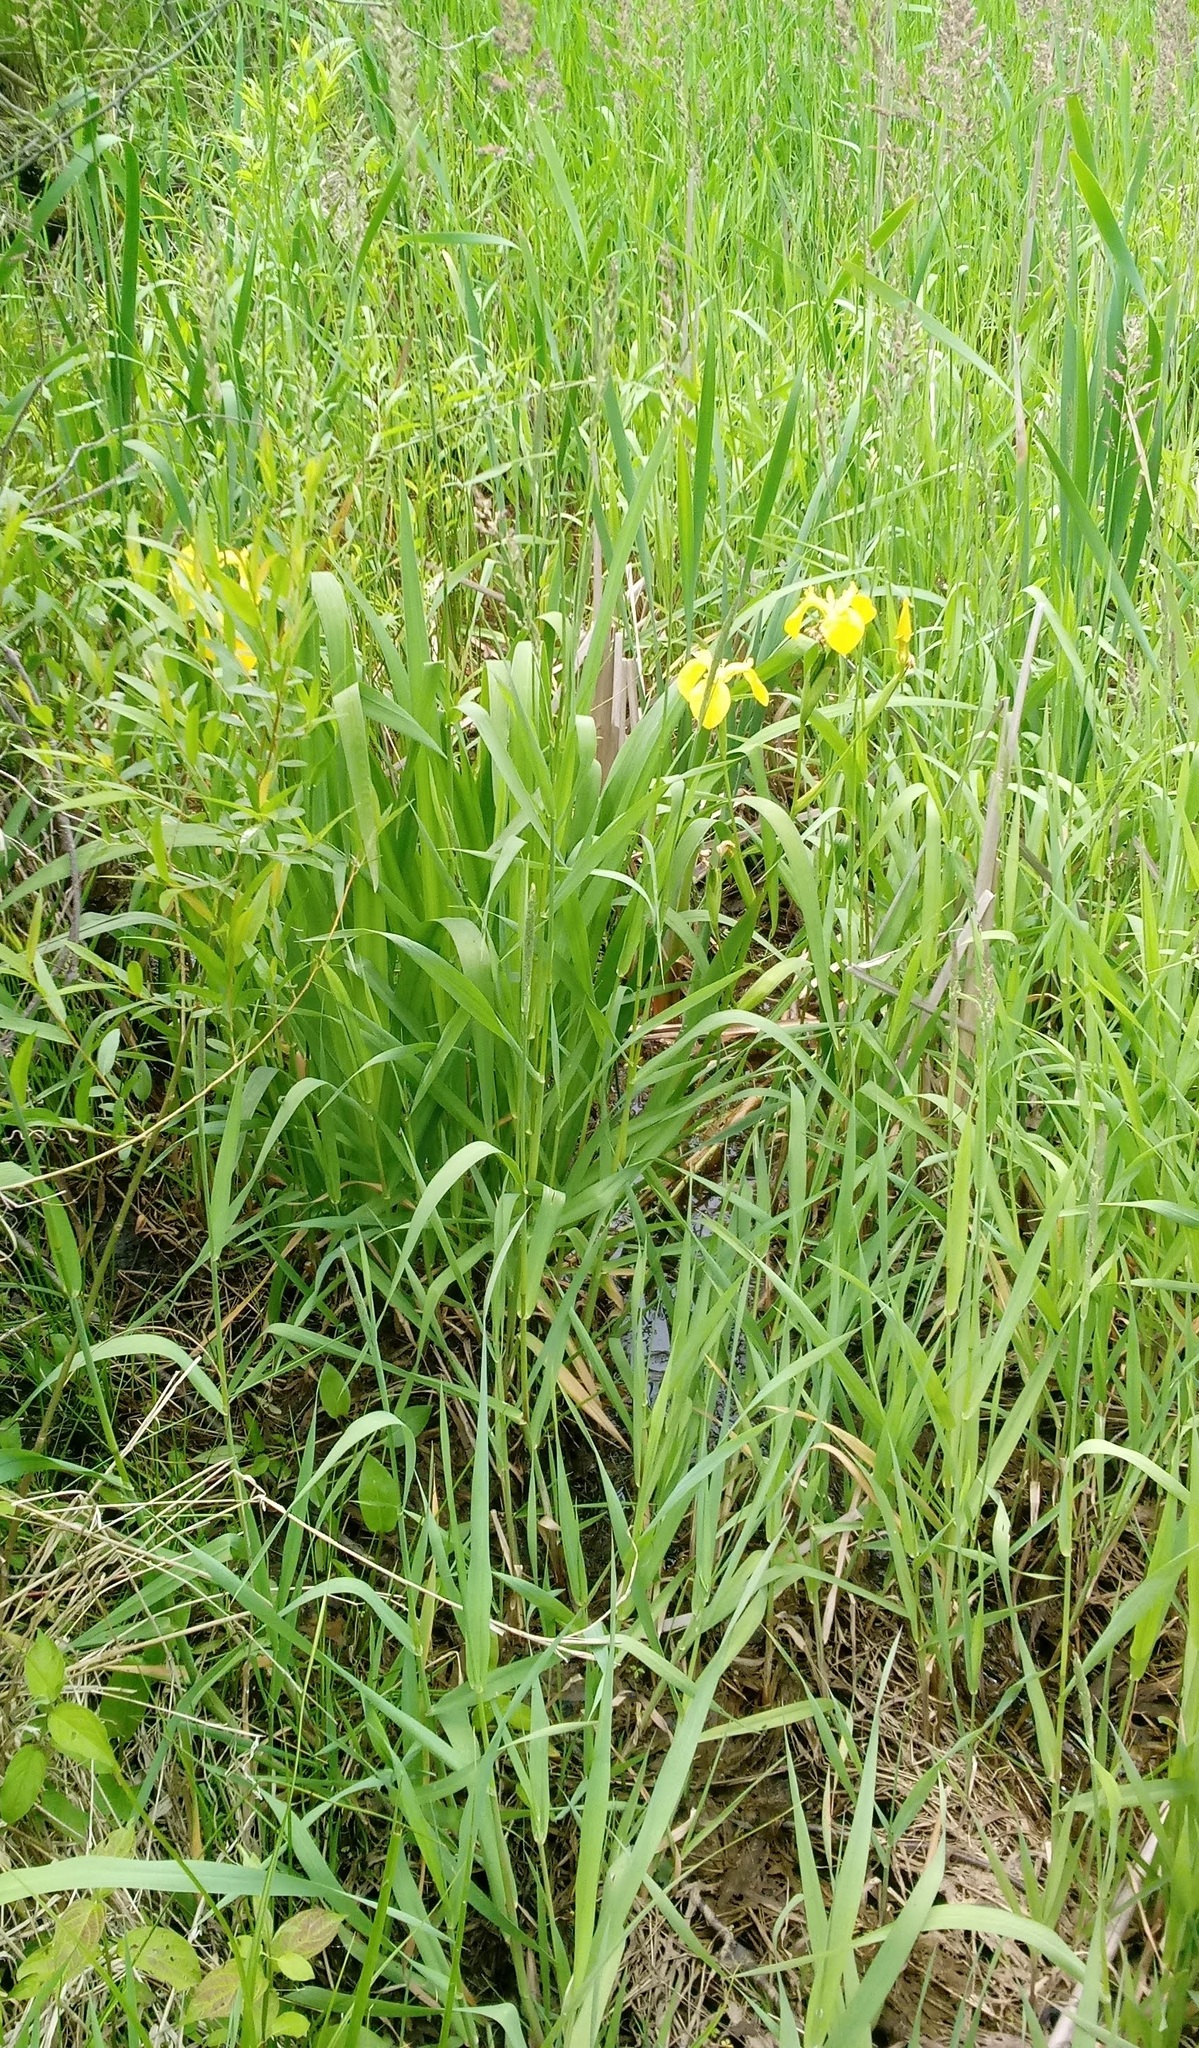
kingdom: Plantae
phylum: Tracheophyta
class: Liliopsida
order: Asparagales
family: Iridaceae
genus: Iris
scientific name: Iris pseudacorus
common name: Yellow flag
